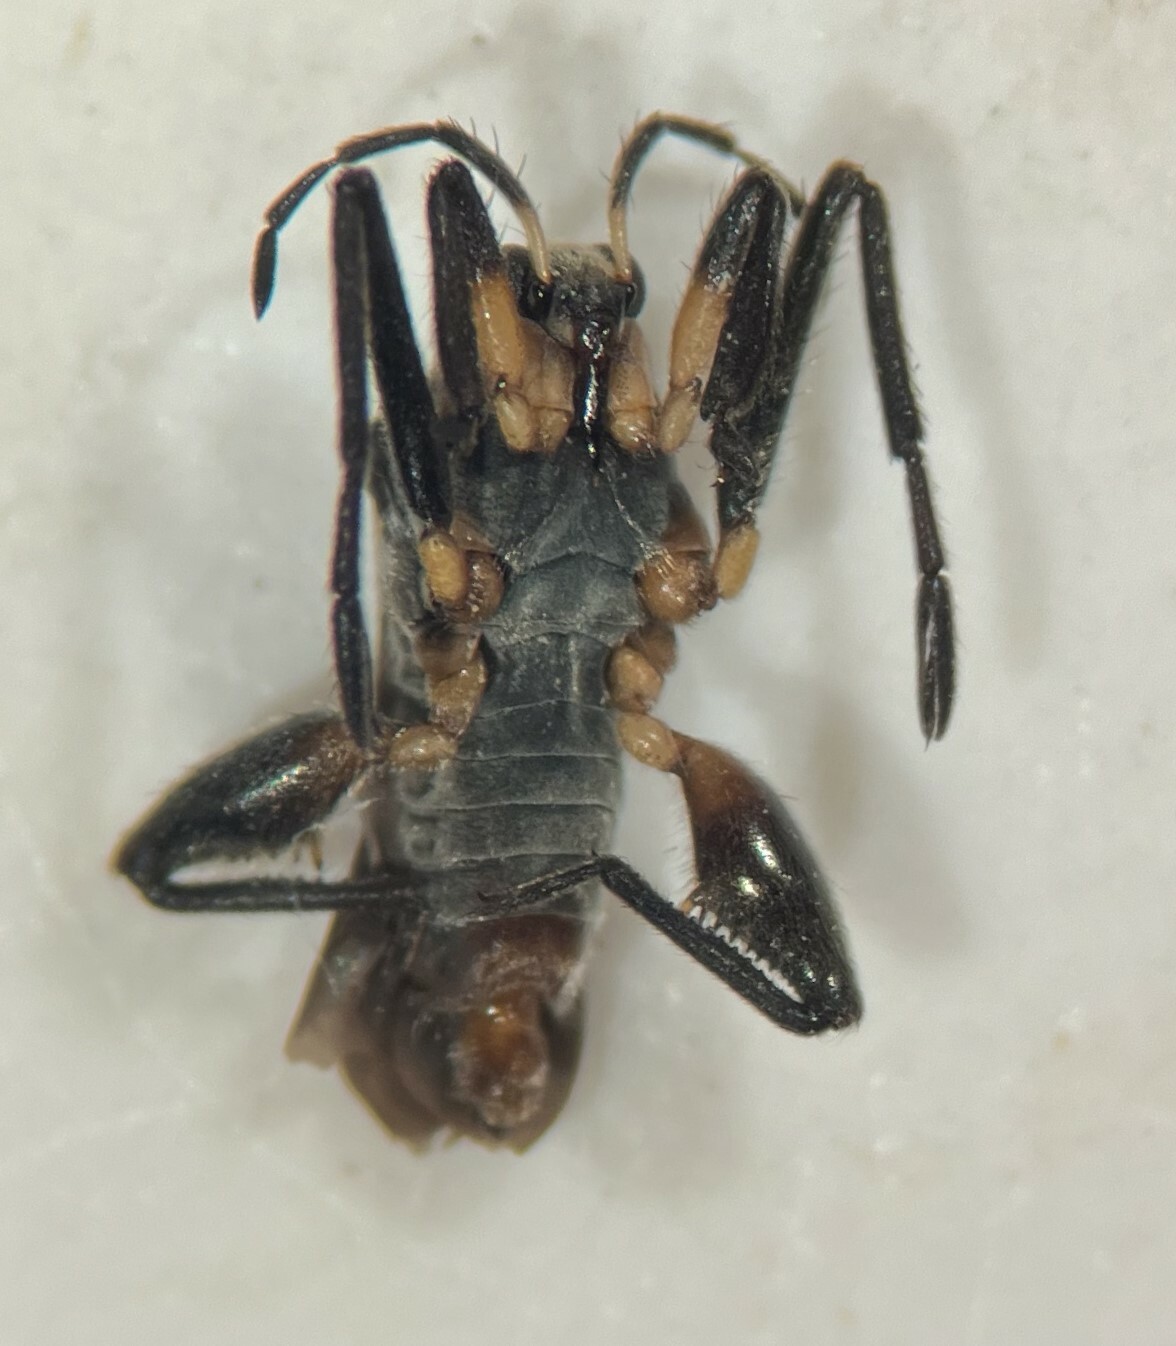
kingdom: Animalia
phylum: Arthropoda
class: Insecta
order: Hemiptera
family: Veliidae
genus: Rhagovelia
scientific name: Rhagovelia ignota
